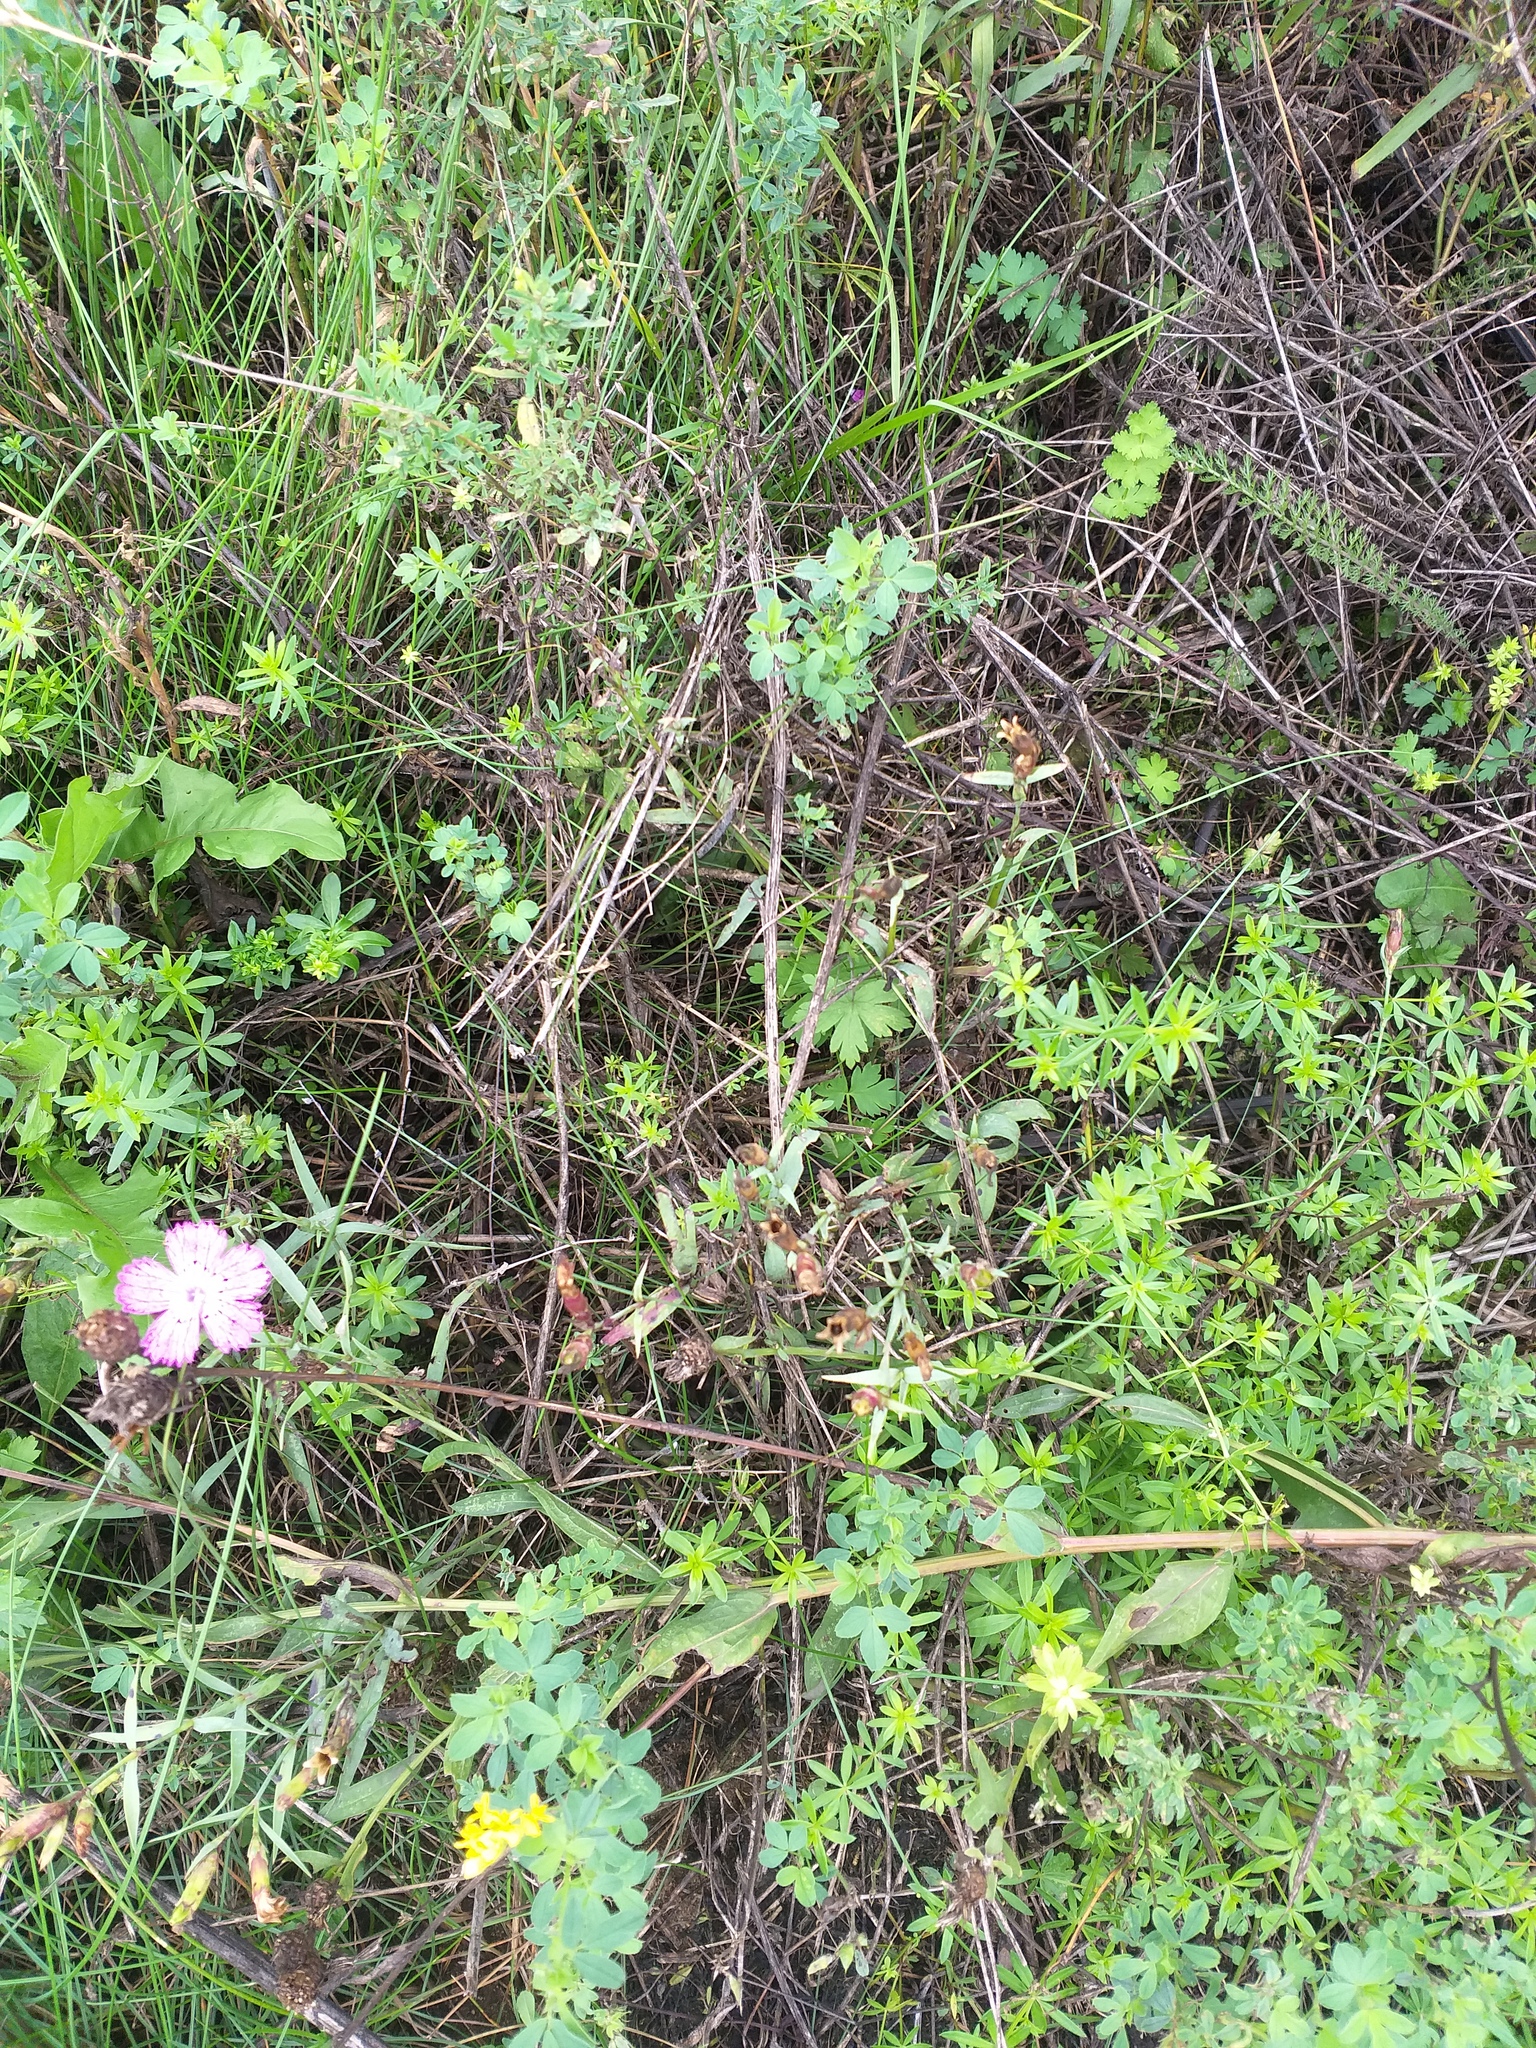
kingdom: Plantae
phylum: Tracheophyta
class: Magnoliopsida
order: Caryophyllales
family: Caryophyllaceae
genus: Dianthus
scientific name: Dianthus chinensis
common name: Rainbow pink
